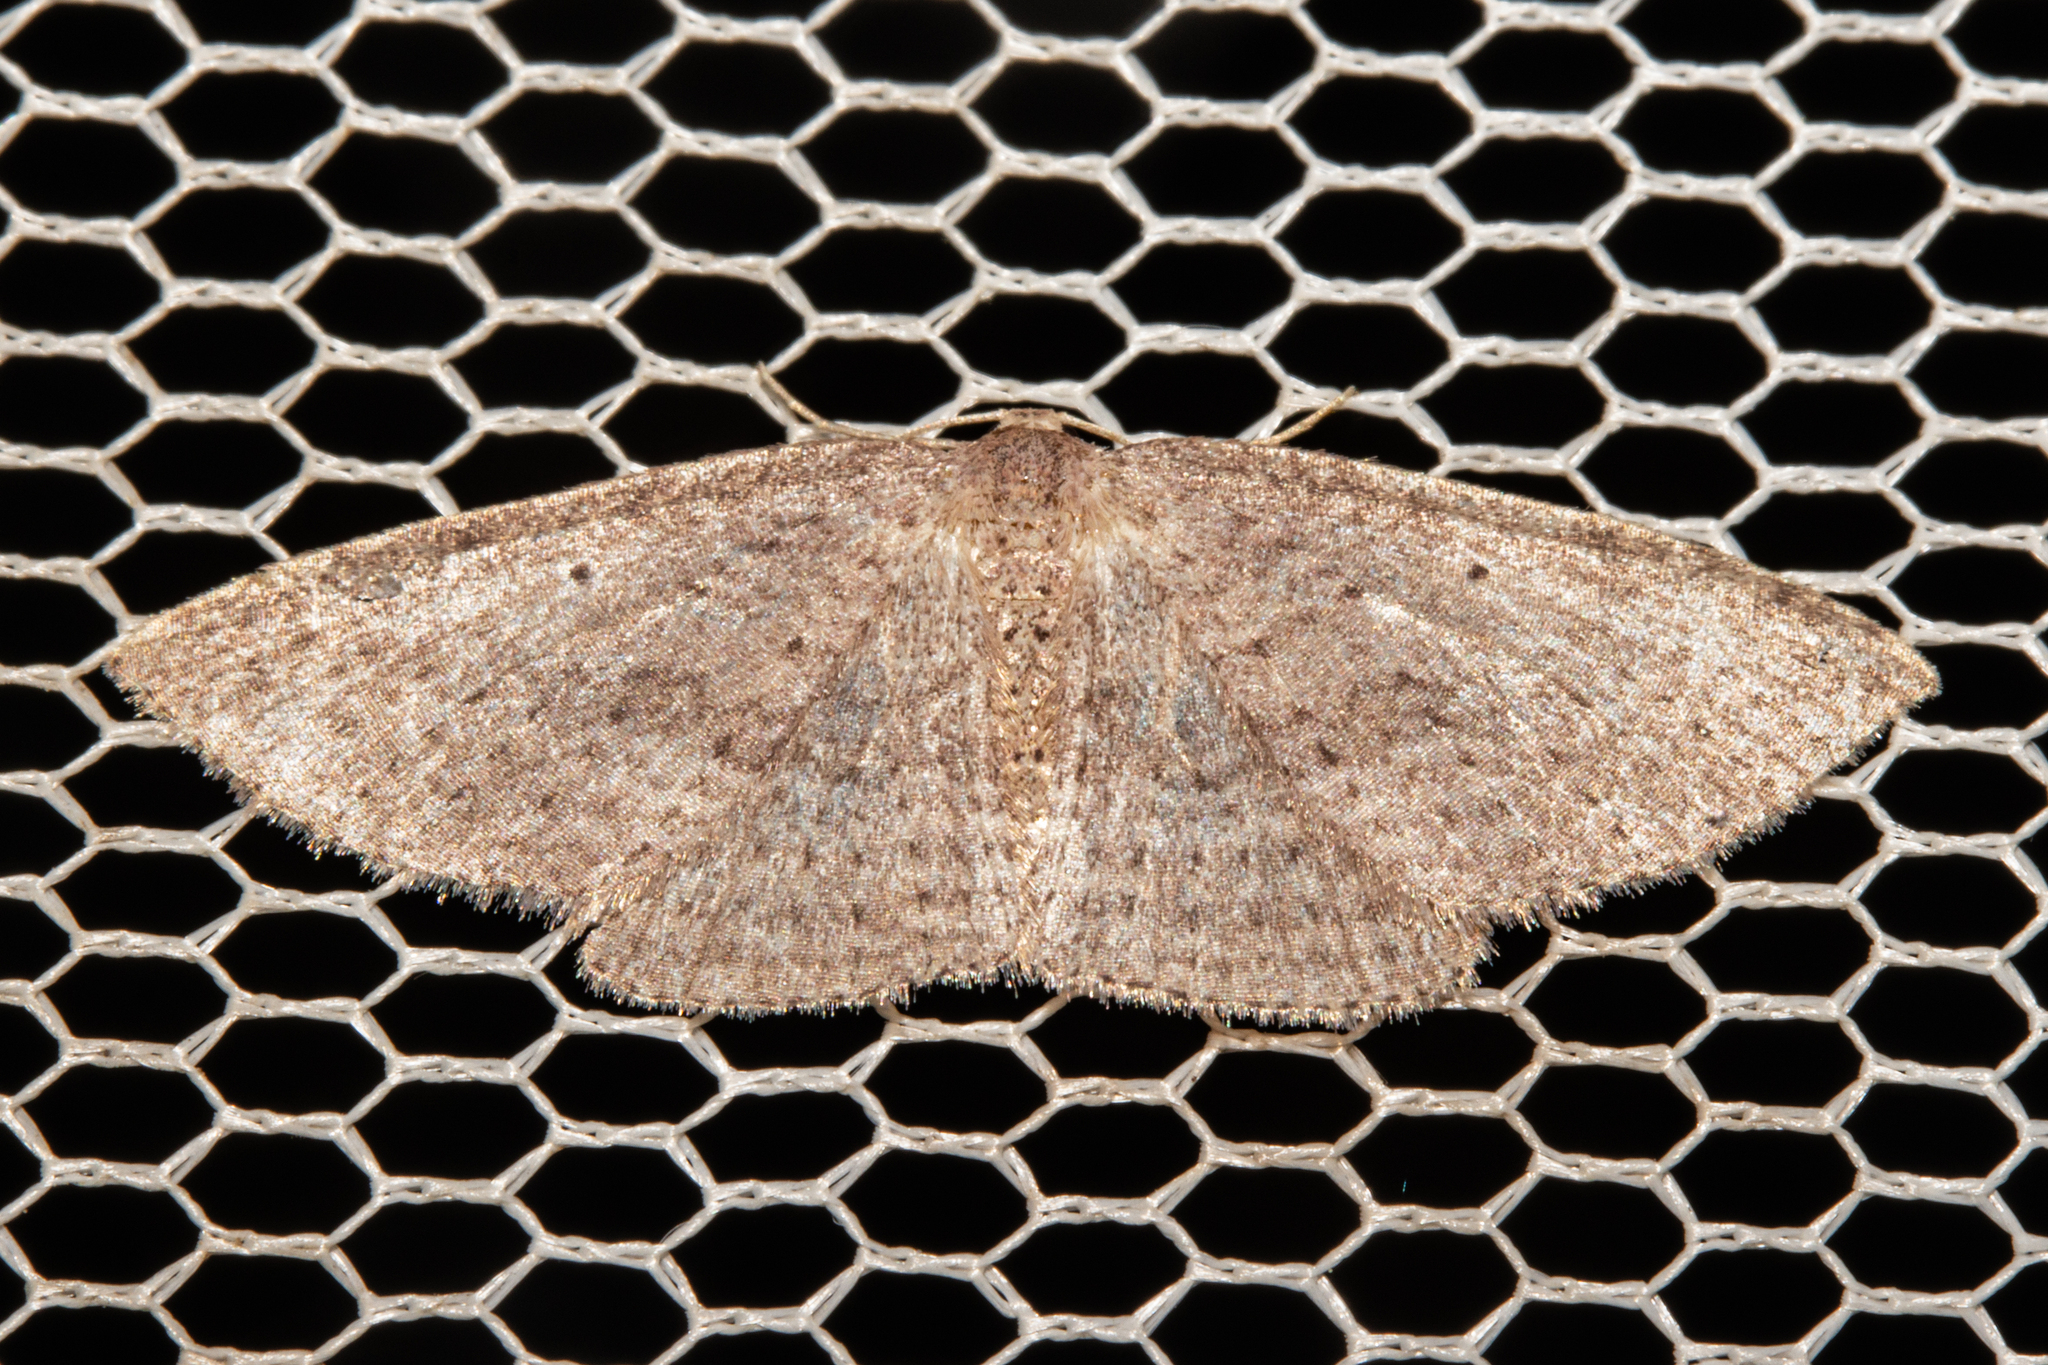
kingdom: Animalia
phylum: Arthropoda
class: Insecta
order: Lepidoptera
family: Geometridae
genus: Poecilasthena
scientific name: Poecilasthena schistaria
